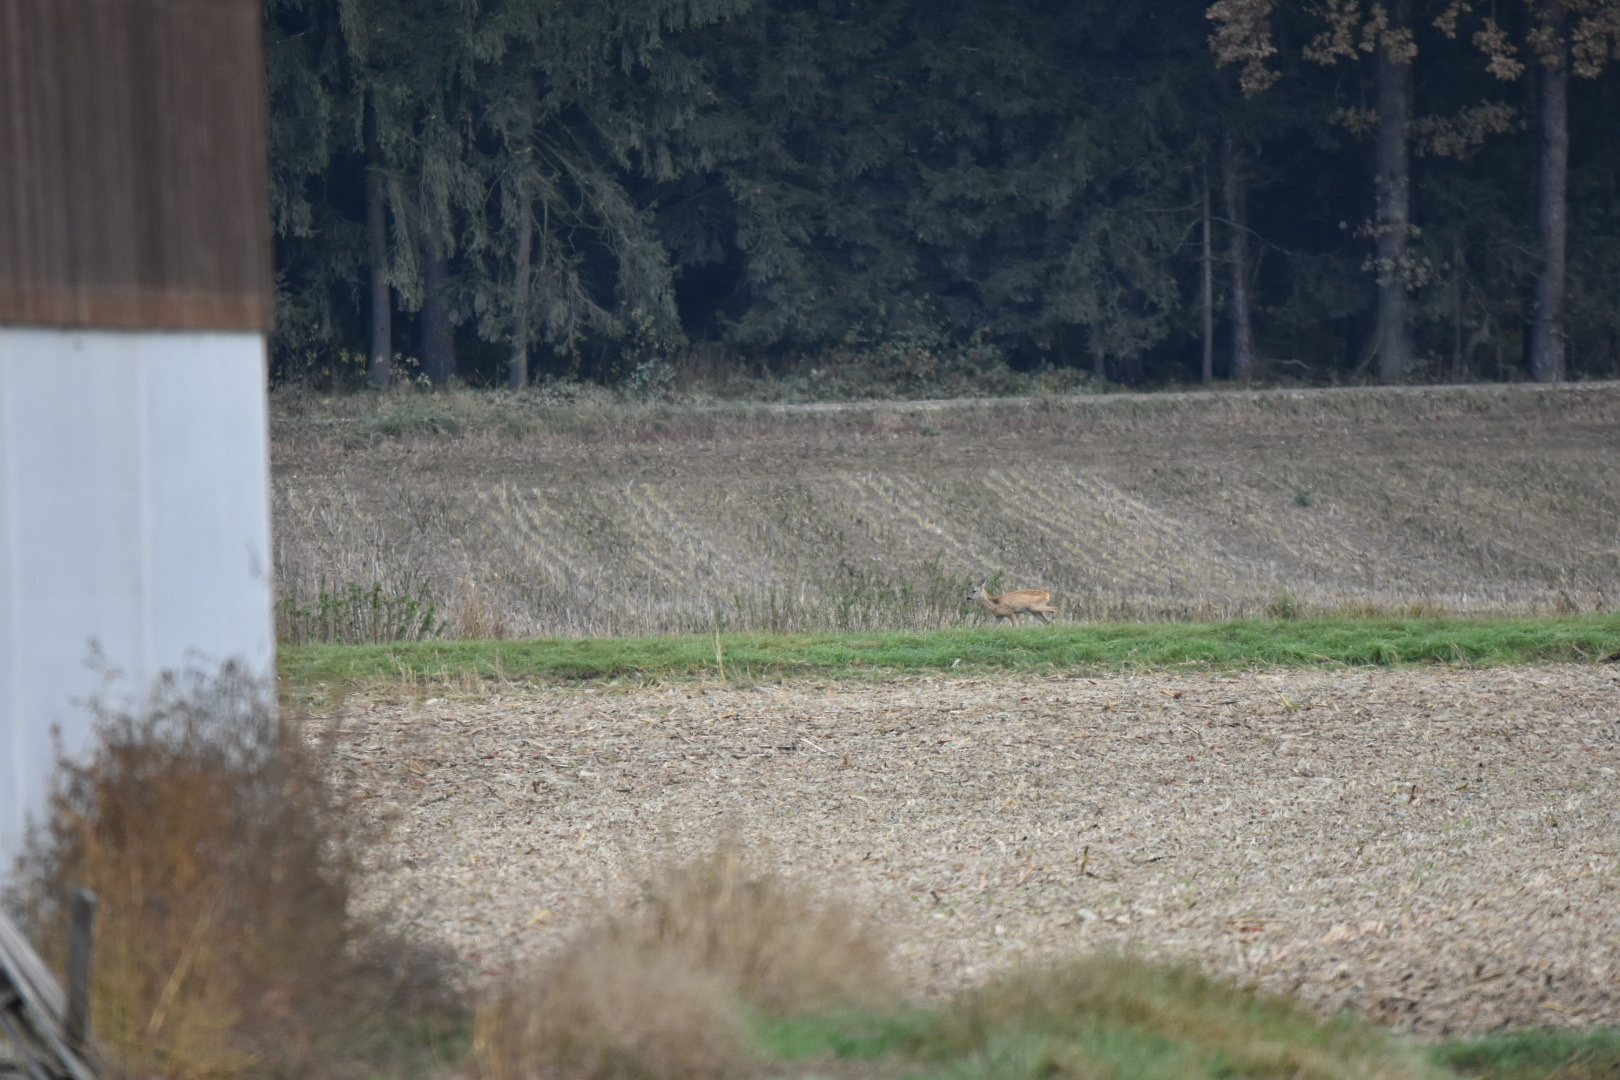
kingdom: Animalia
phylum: Chordata
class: Mammalia
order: Artiodactyla
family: Cervidae
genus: Capreolus
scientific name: Capreolus capreolus
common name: Western roe deer
